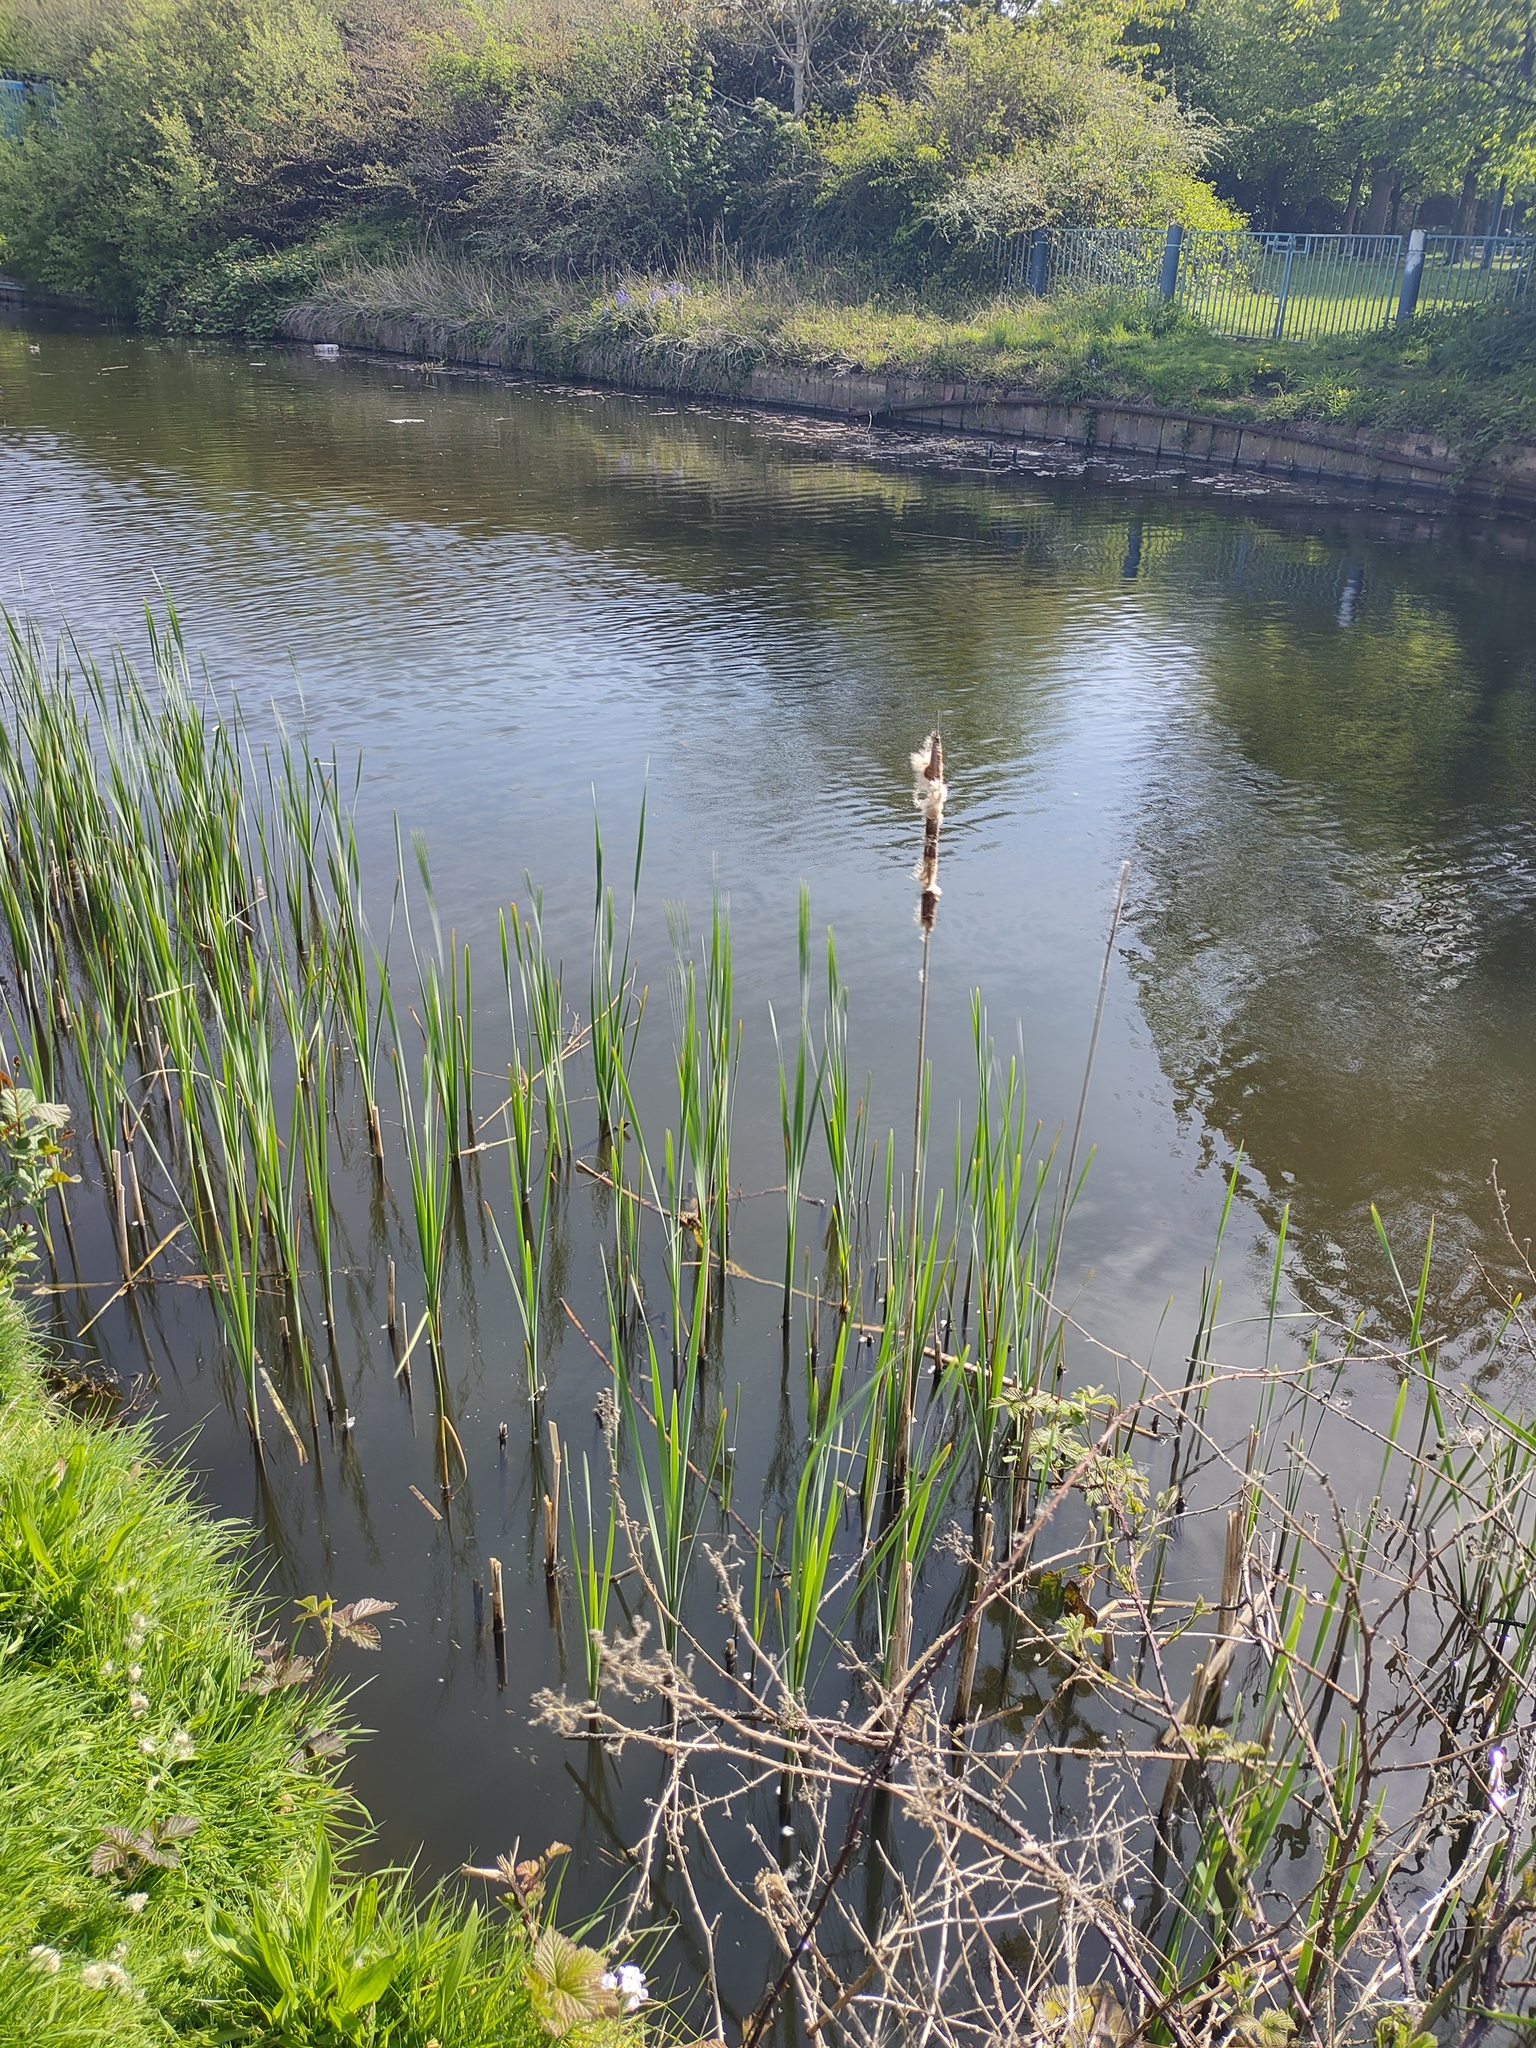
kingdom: Plantae
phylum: Tracheophyta
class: Liliopsida
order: Poales
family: Typhaceae
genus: Typha
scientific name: Typha latifolia
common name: Broadleaf cattail
